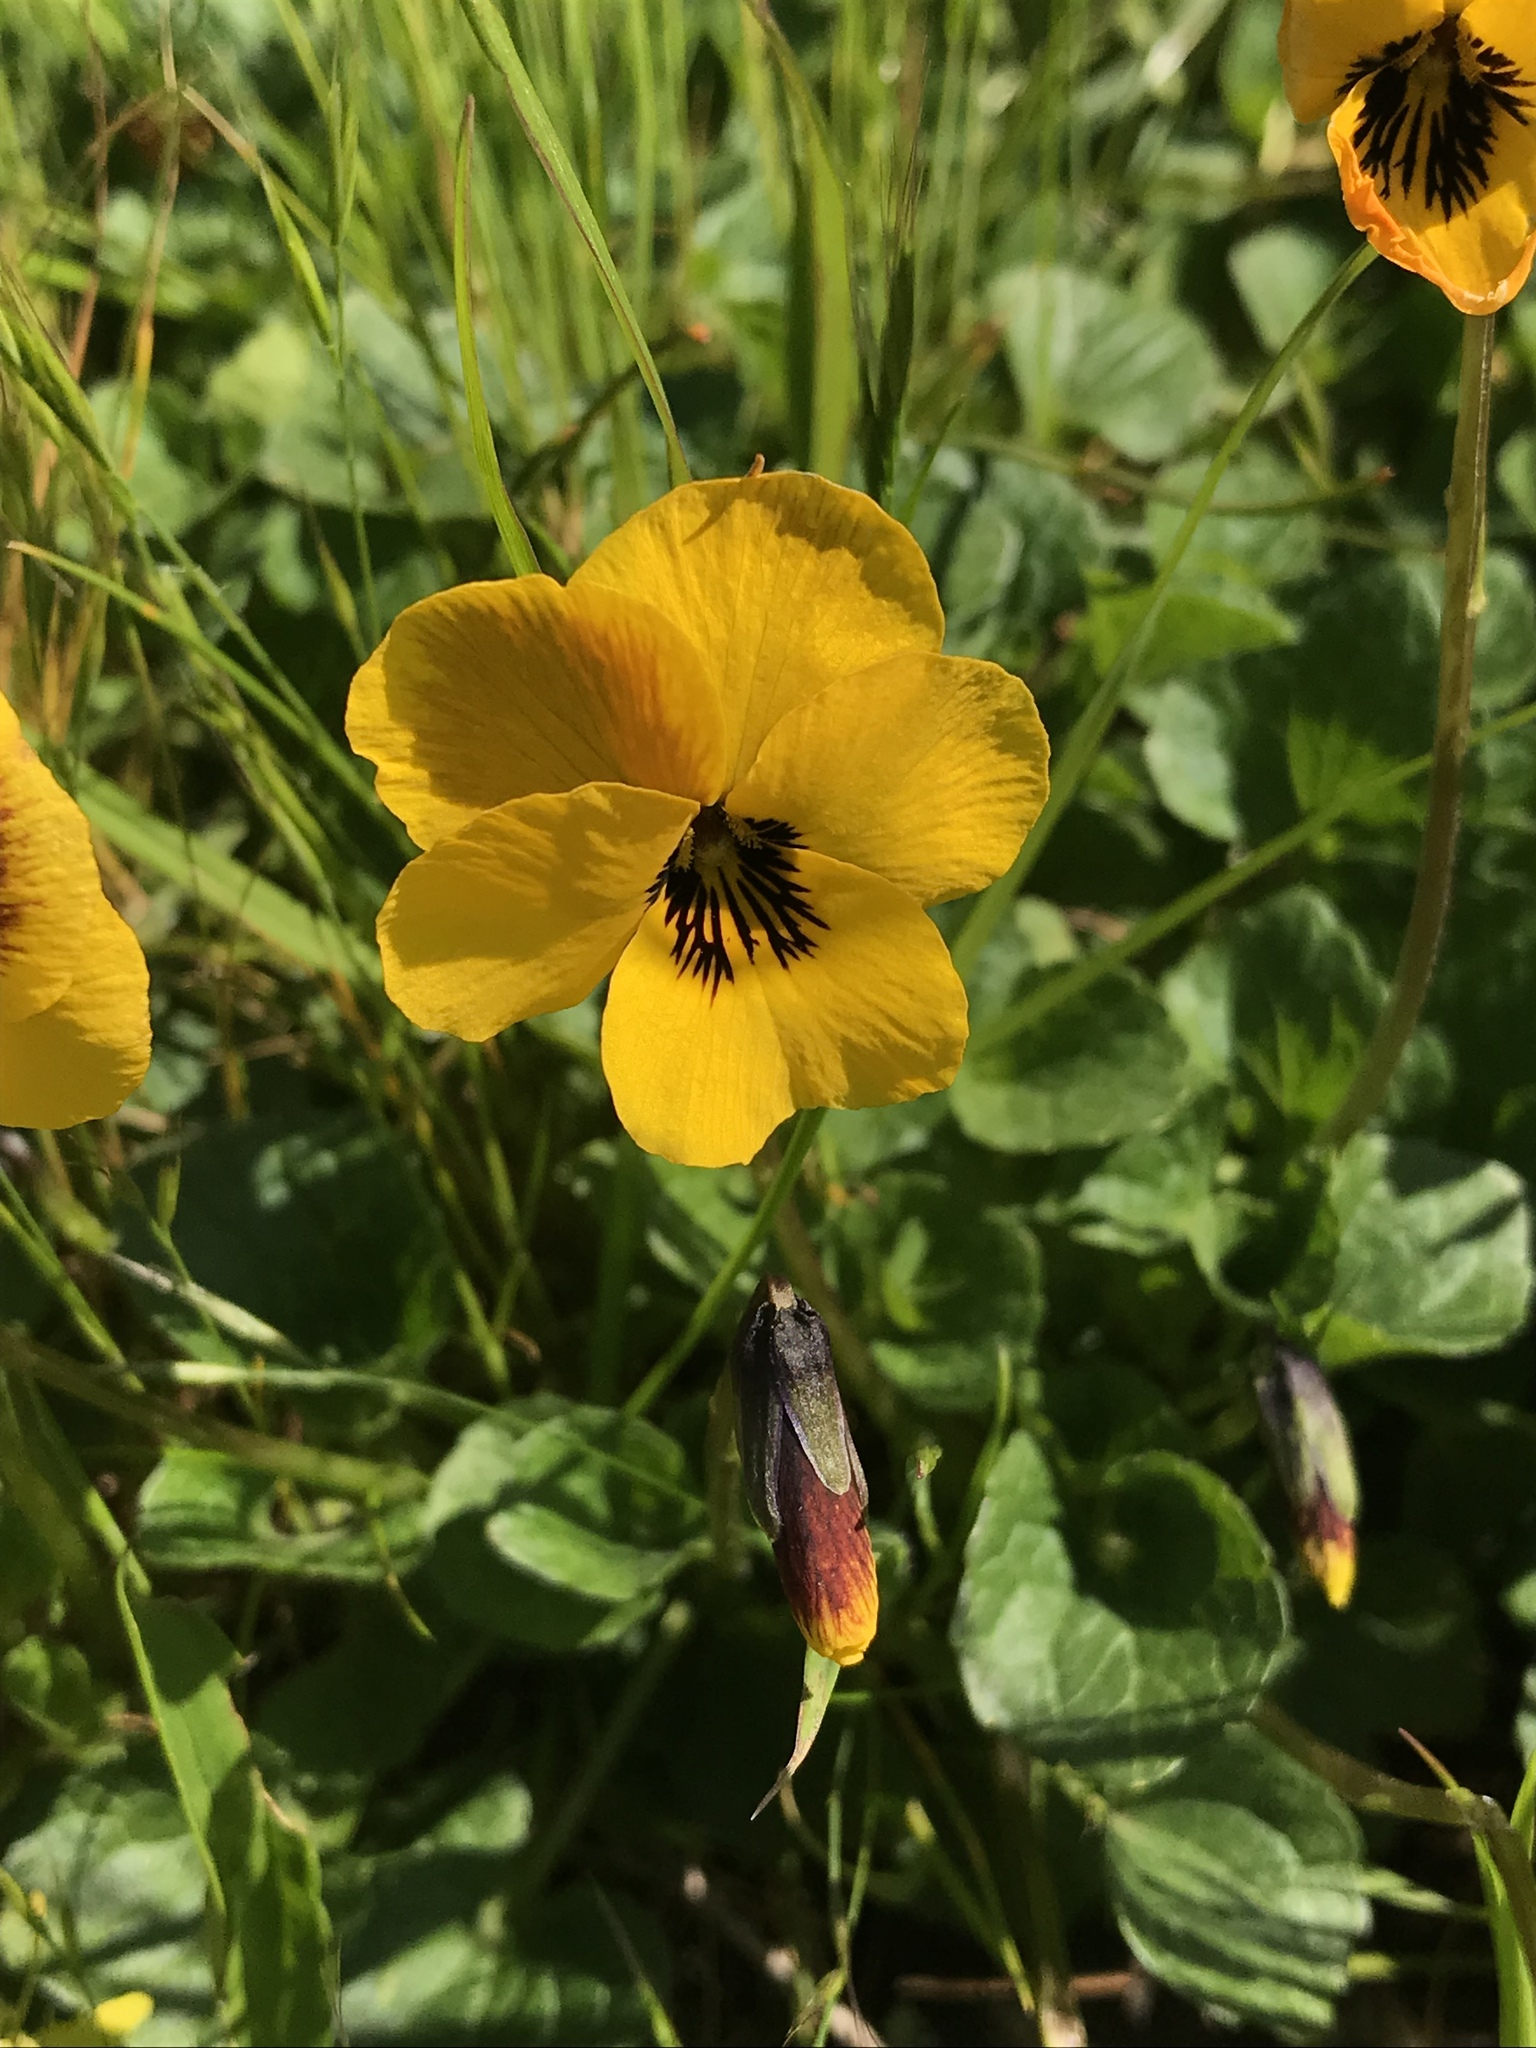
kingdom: Plantae
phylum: Tracheophyta
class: Magnoliopsida
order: Malpighiales
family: Violaceae
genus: Viola
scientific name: Viola pedunculata
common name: California golden violet
